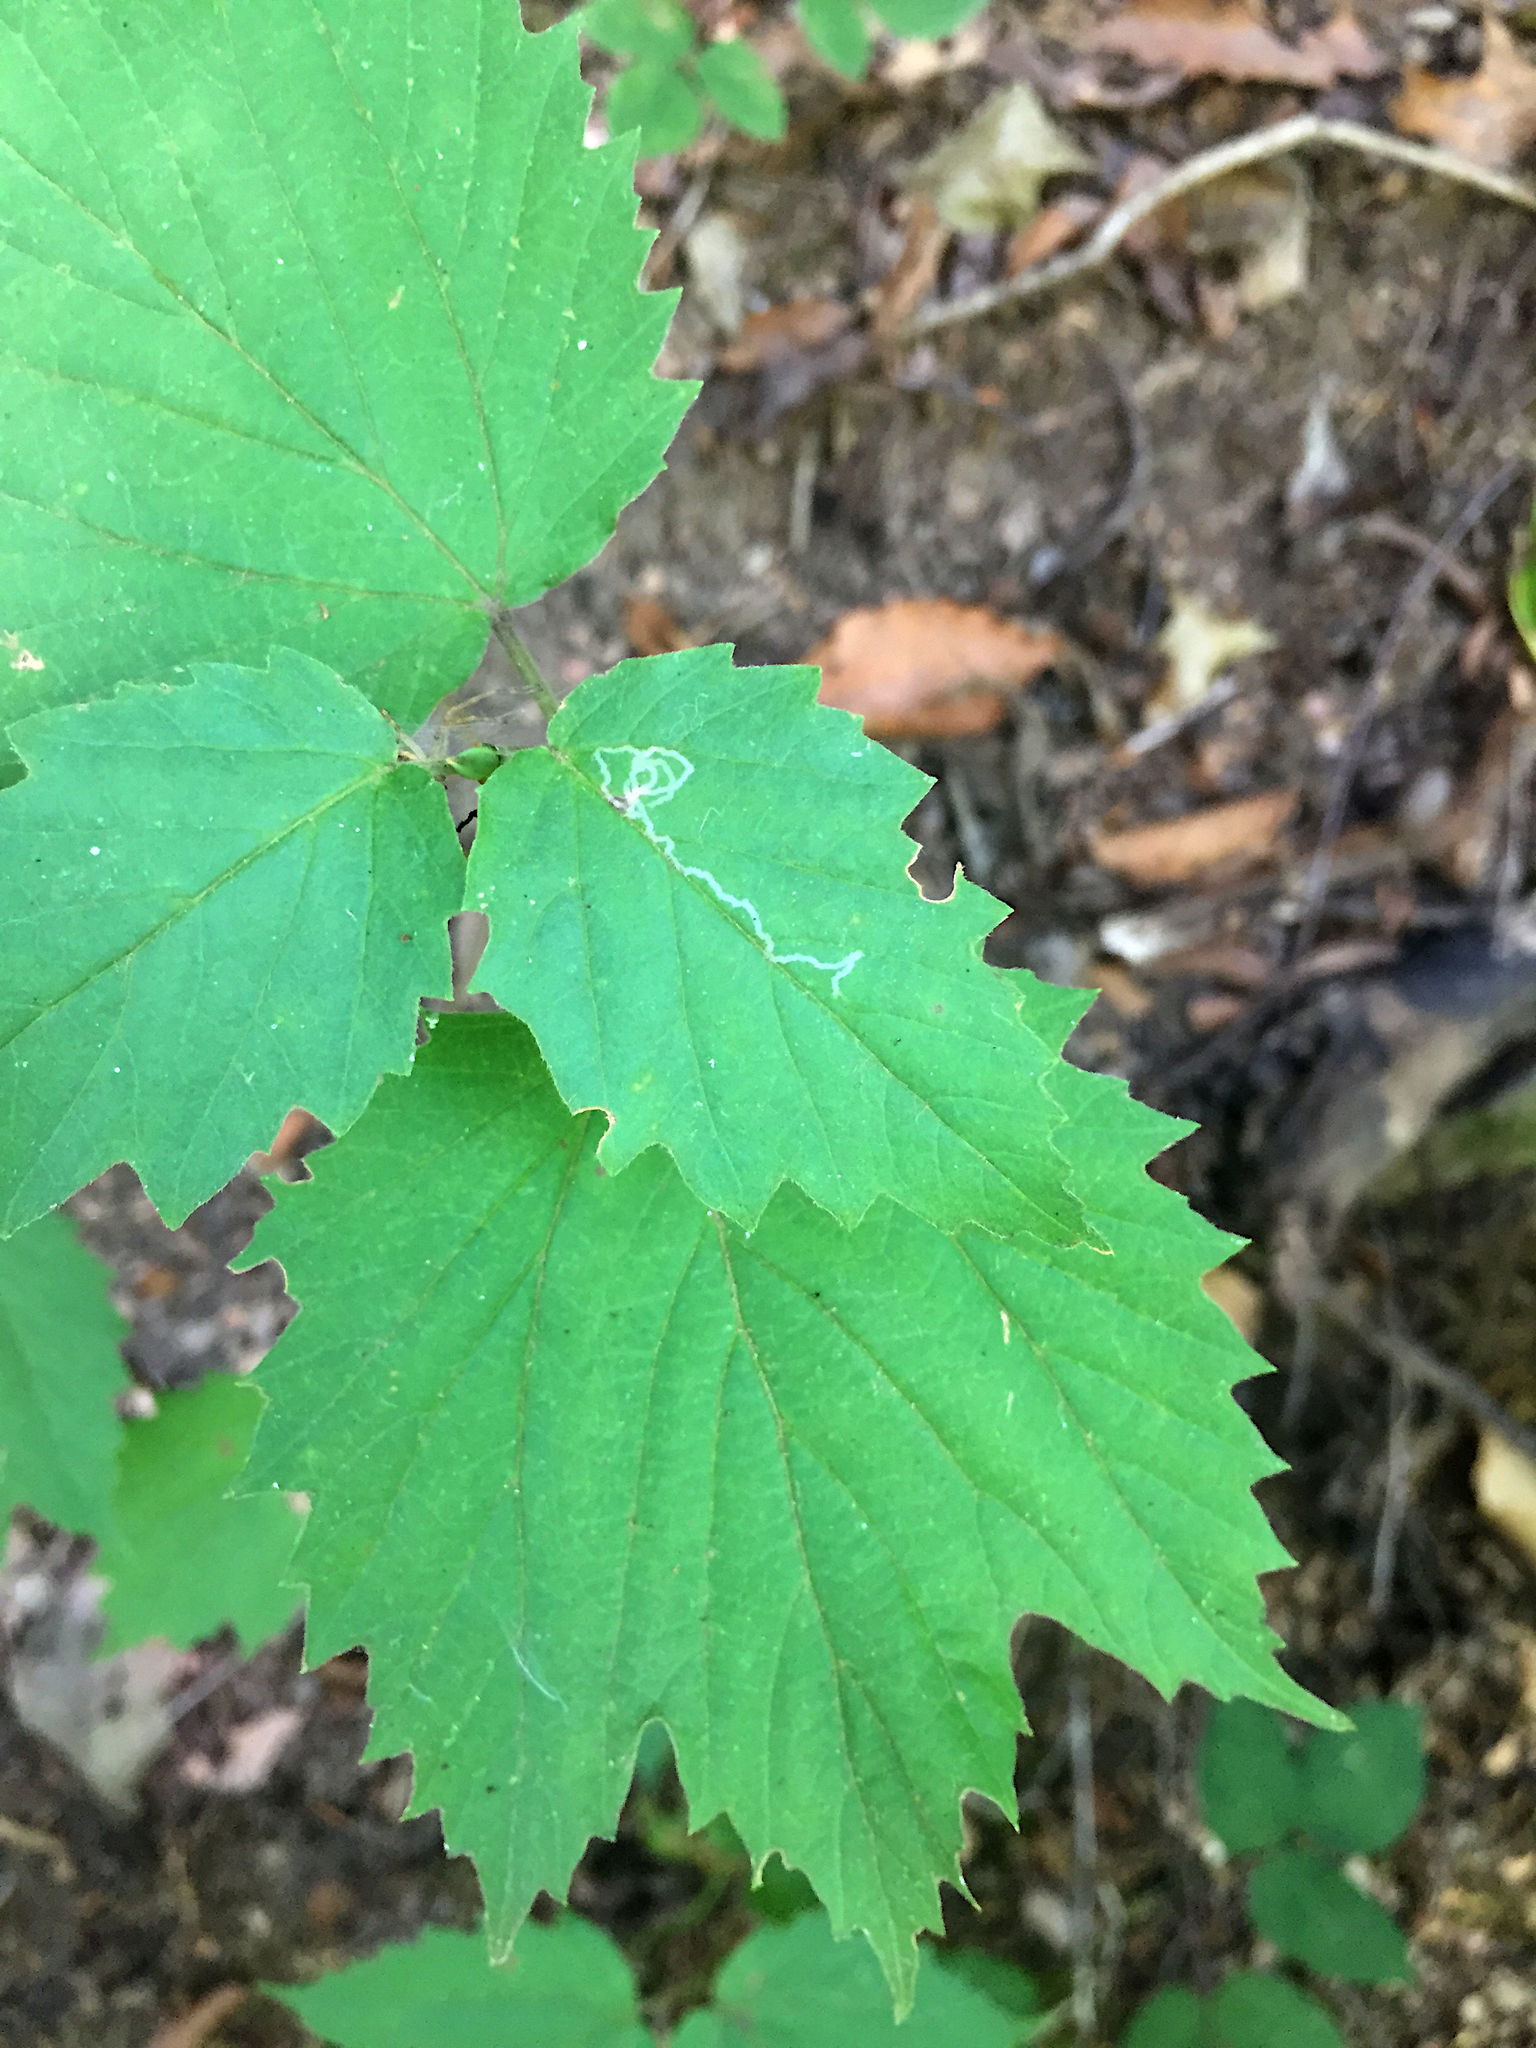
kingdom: Animalia
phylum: Arthropoda
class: Insecta
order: Lepidoptera
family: Gracillariidae
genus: Marmara
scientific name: Marmara viburnella
